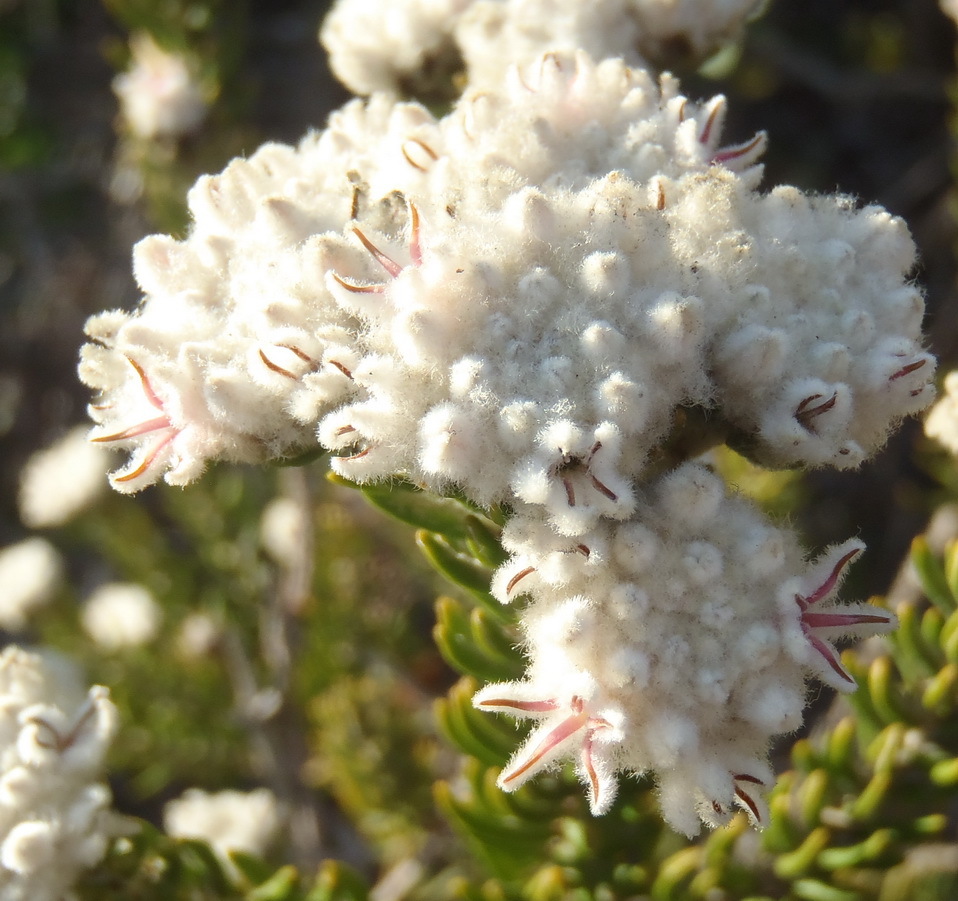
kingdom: Plantae
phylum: Tracheophyta
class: Magnoliopsida
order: Rosales
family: Rhamnaceae
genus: Trichocephalus
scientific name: Trichocephalus stipularis
